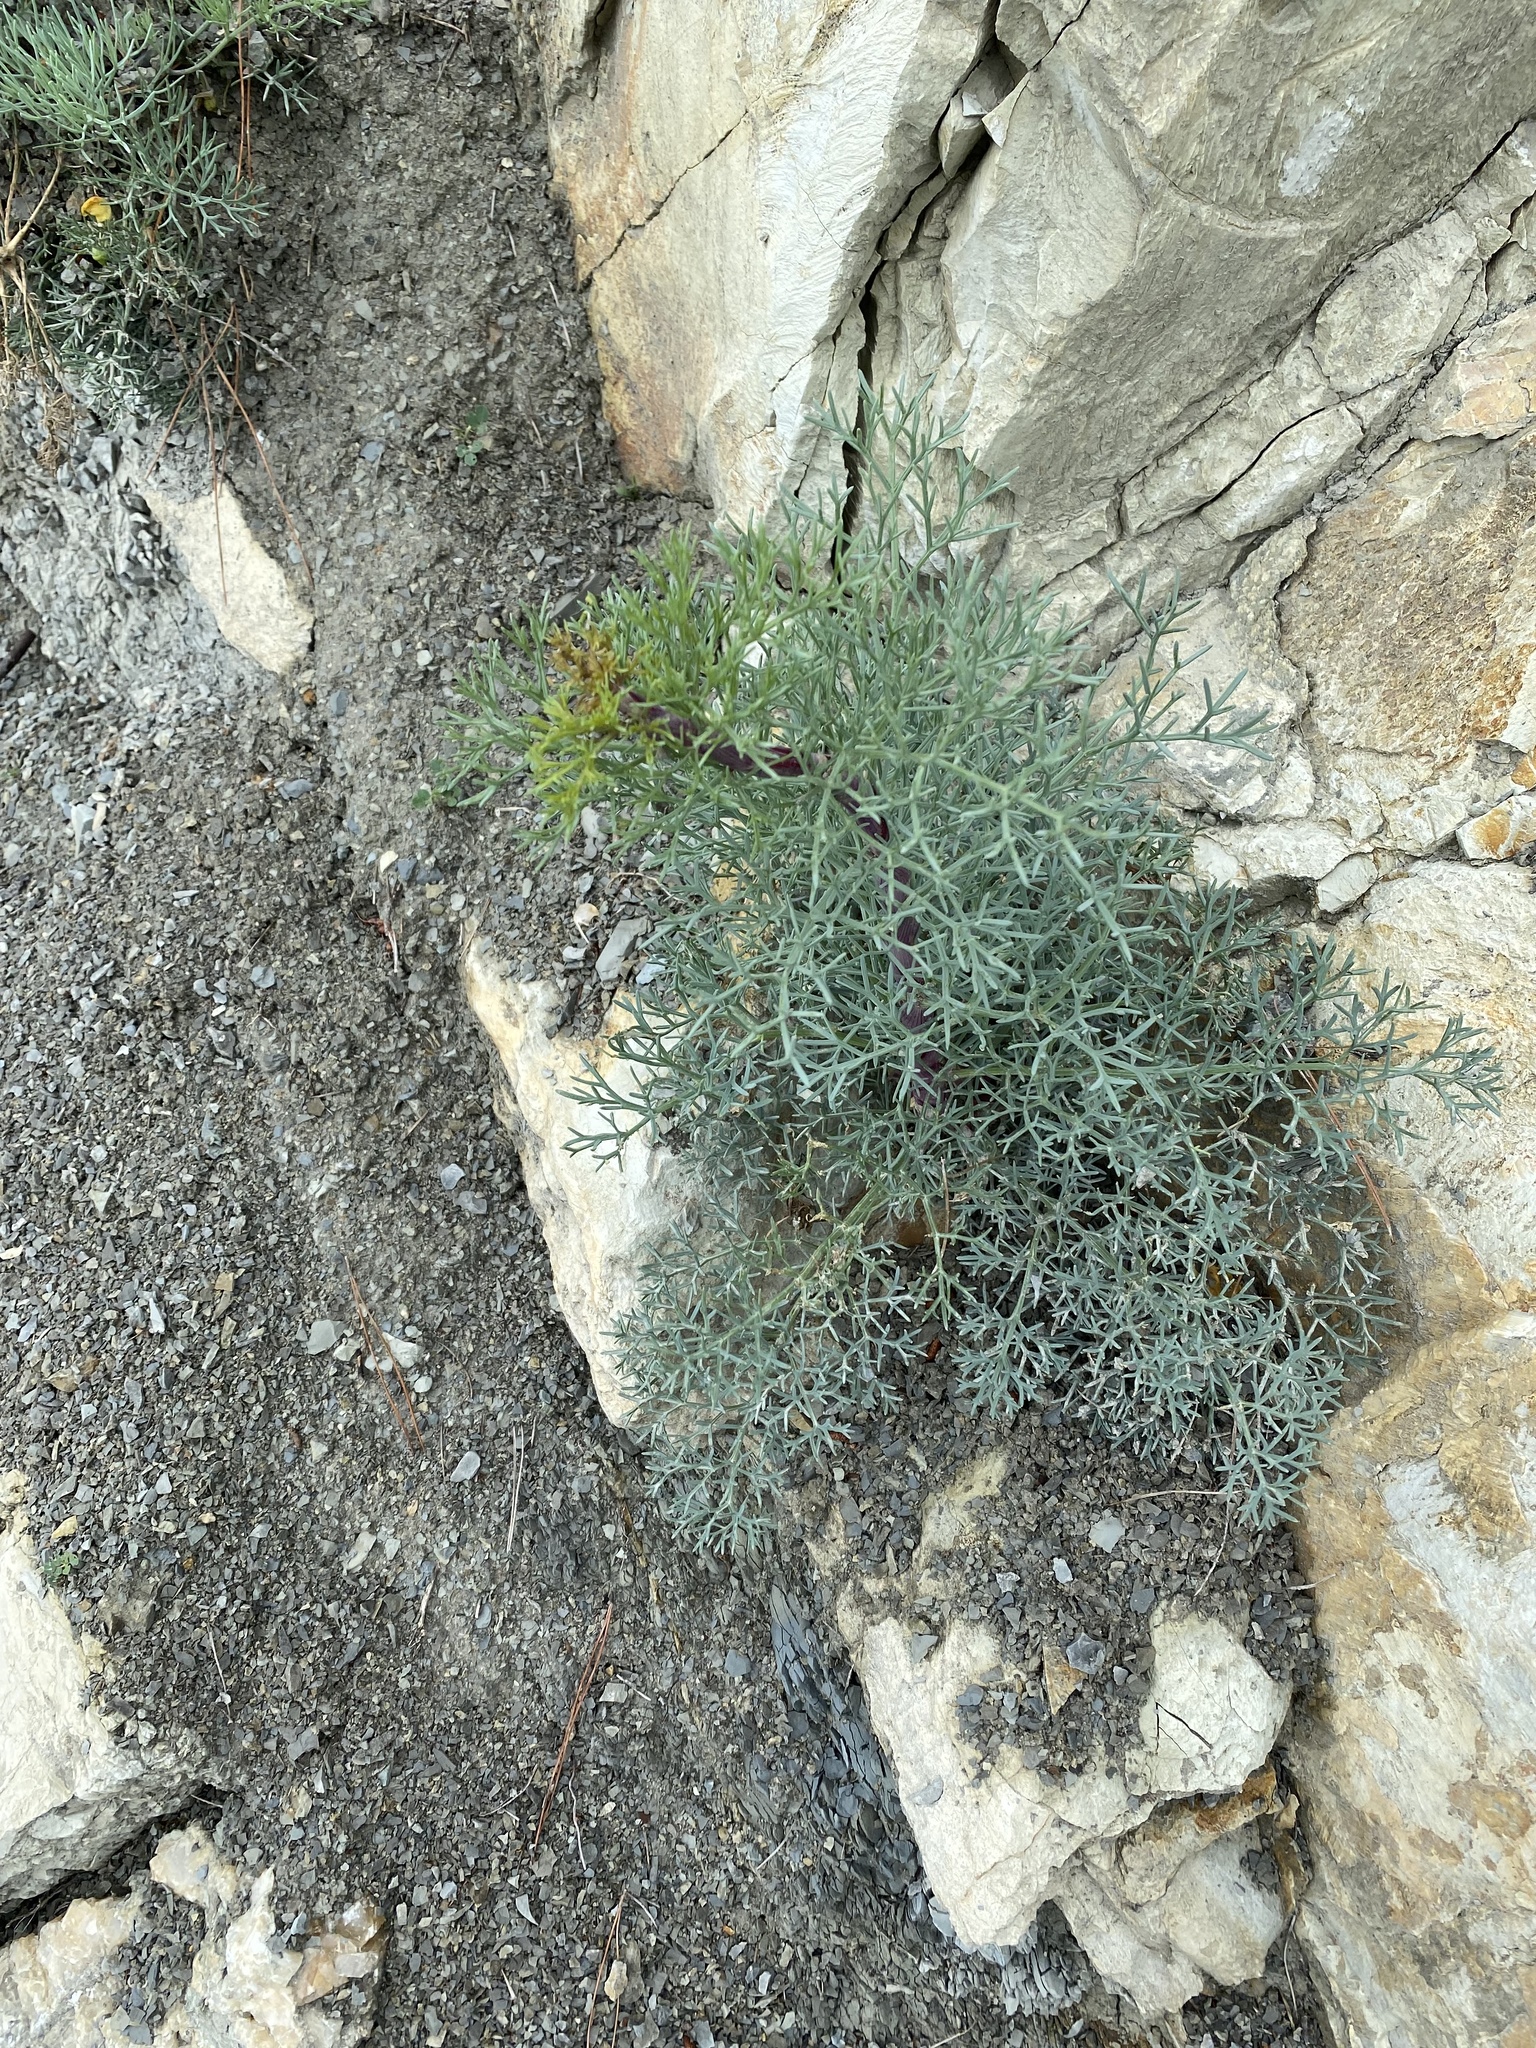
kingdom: Plantae
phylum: Tracheophyta
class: Magnoliopsida
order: Apiales
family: Apiaceae
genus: Seseli
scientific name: Seseli ponticum
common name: Pontic seseli
